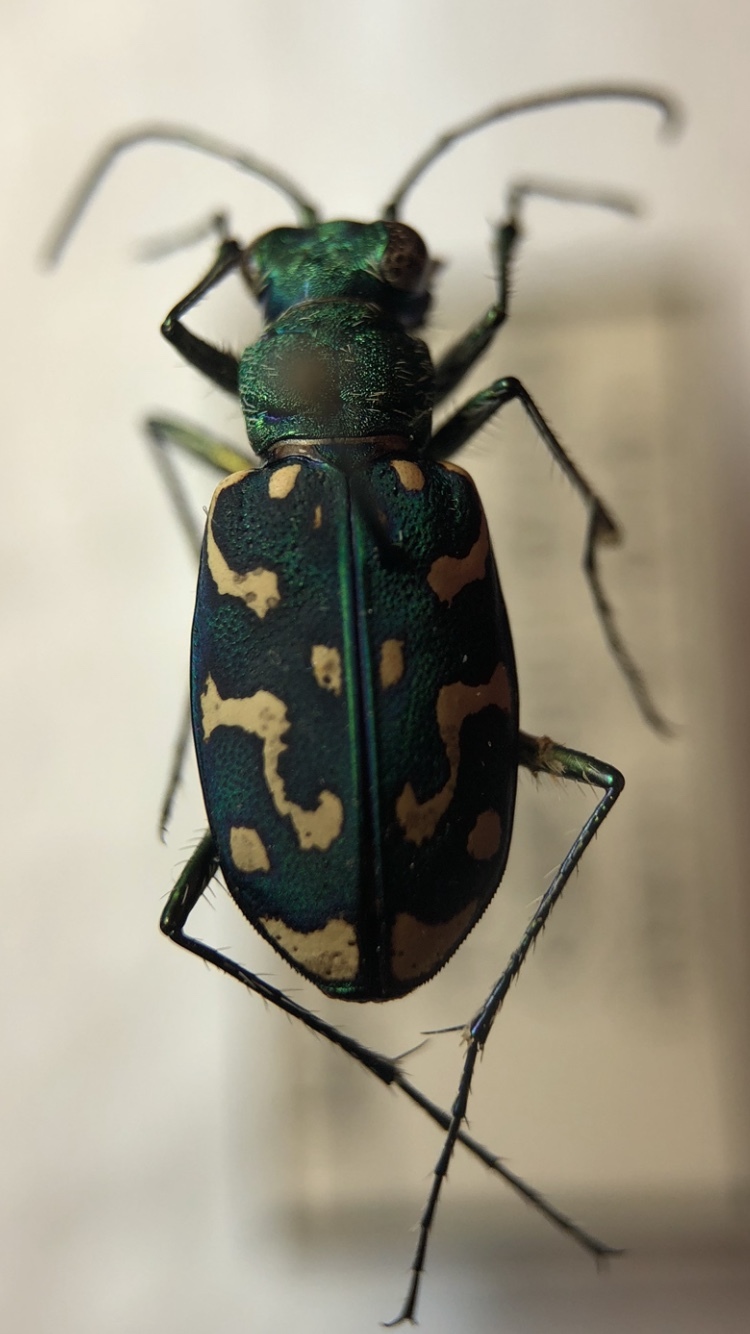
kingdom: Animalia
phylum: Arthropoda
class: Insecta
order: Coleoptera
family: Carabidae
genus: Lophyra
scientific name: Lophyra flexuosa
